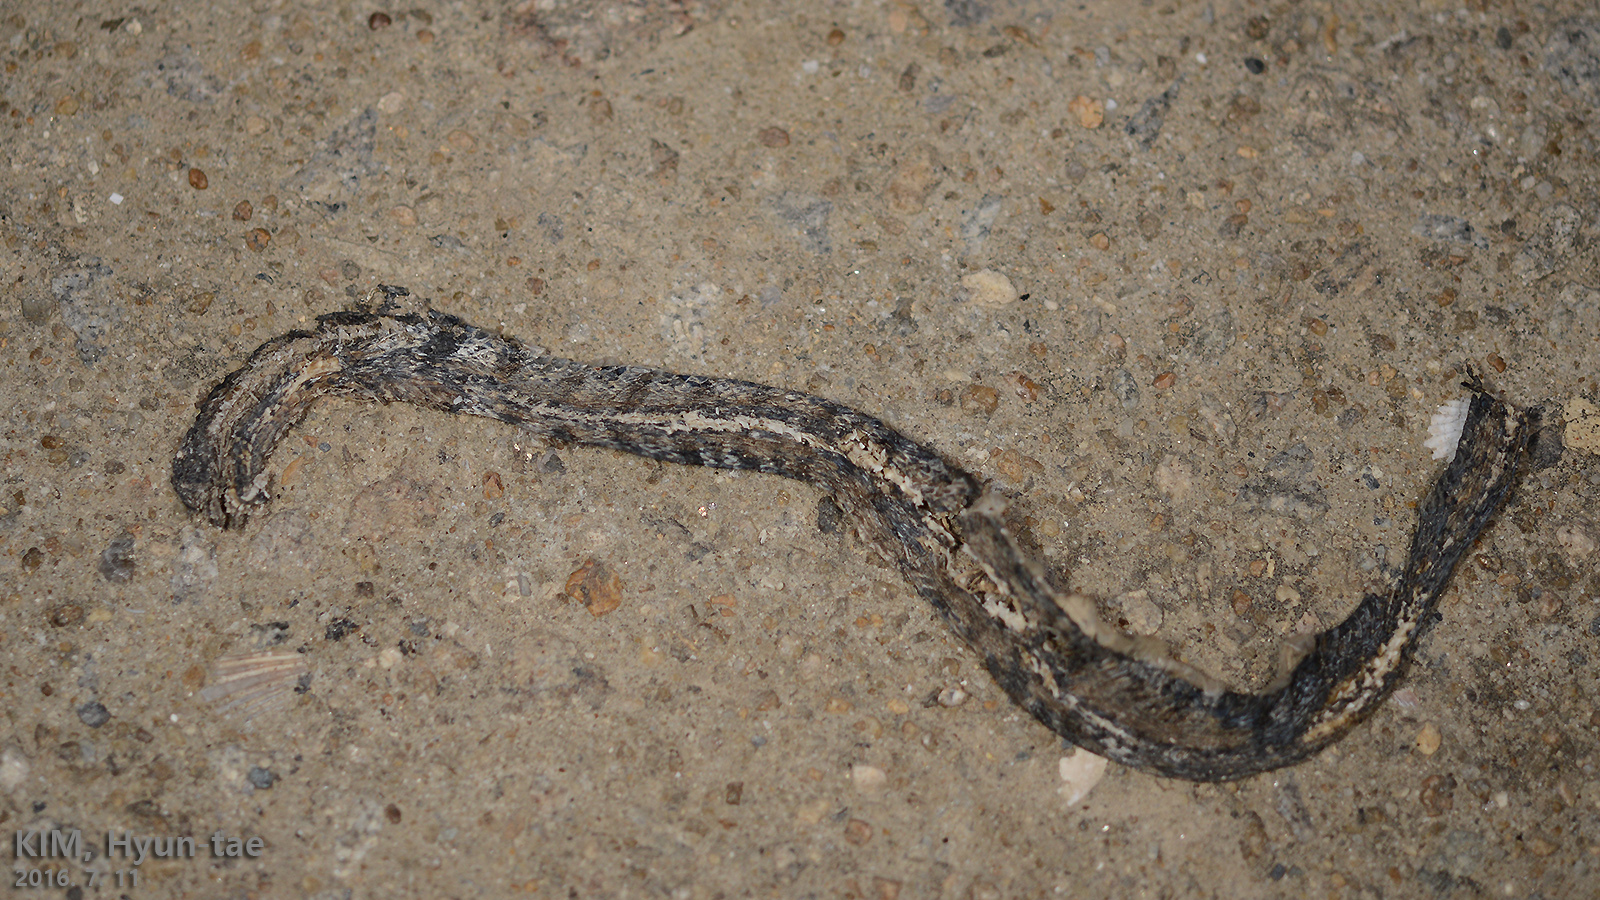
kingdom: Animalia
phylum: Chordata
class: Squamata
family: Colubridae
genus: Elaphe
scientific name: Elaphe dione
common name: Dione ratsnake
